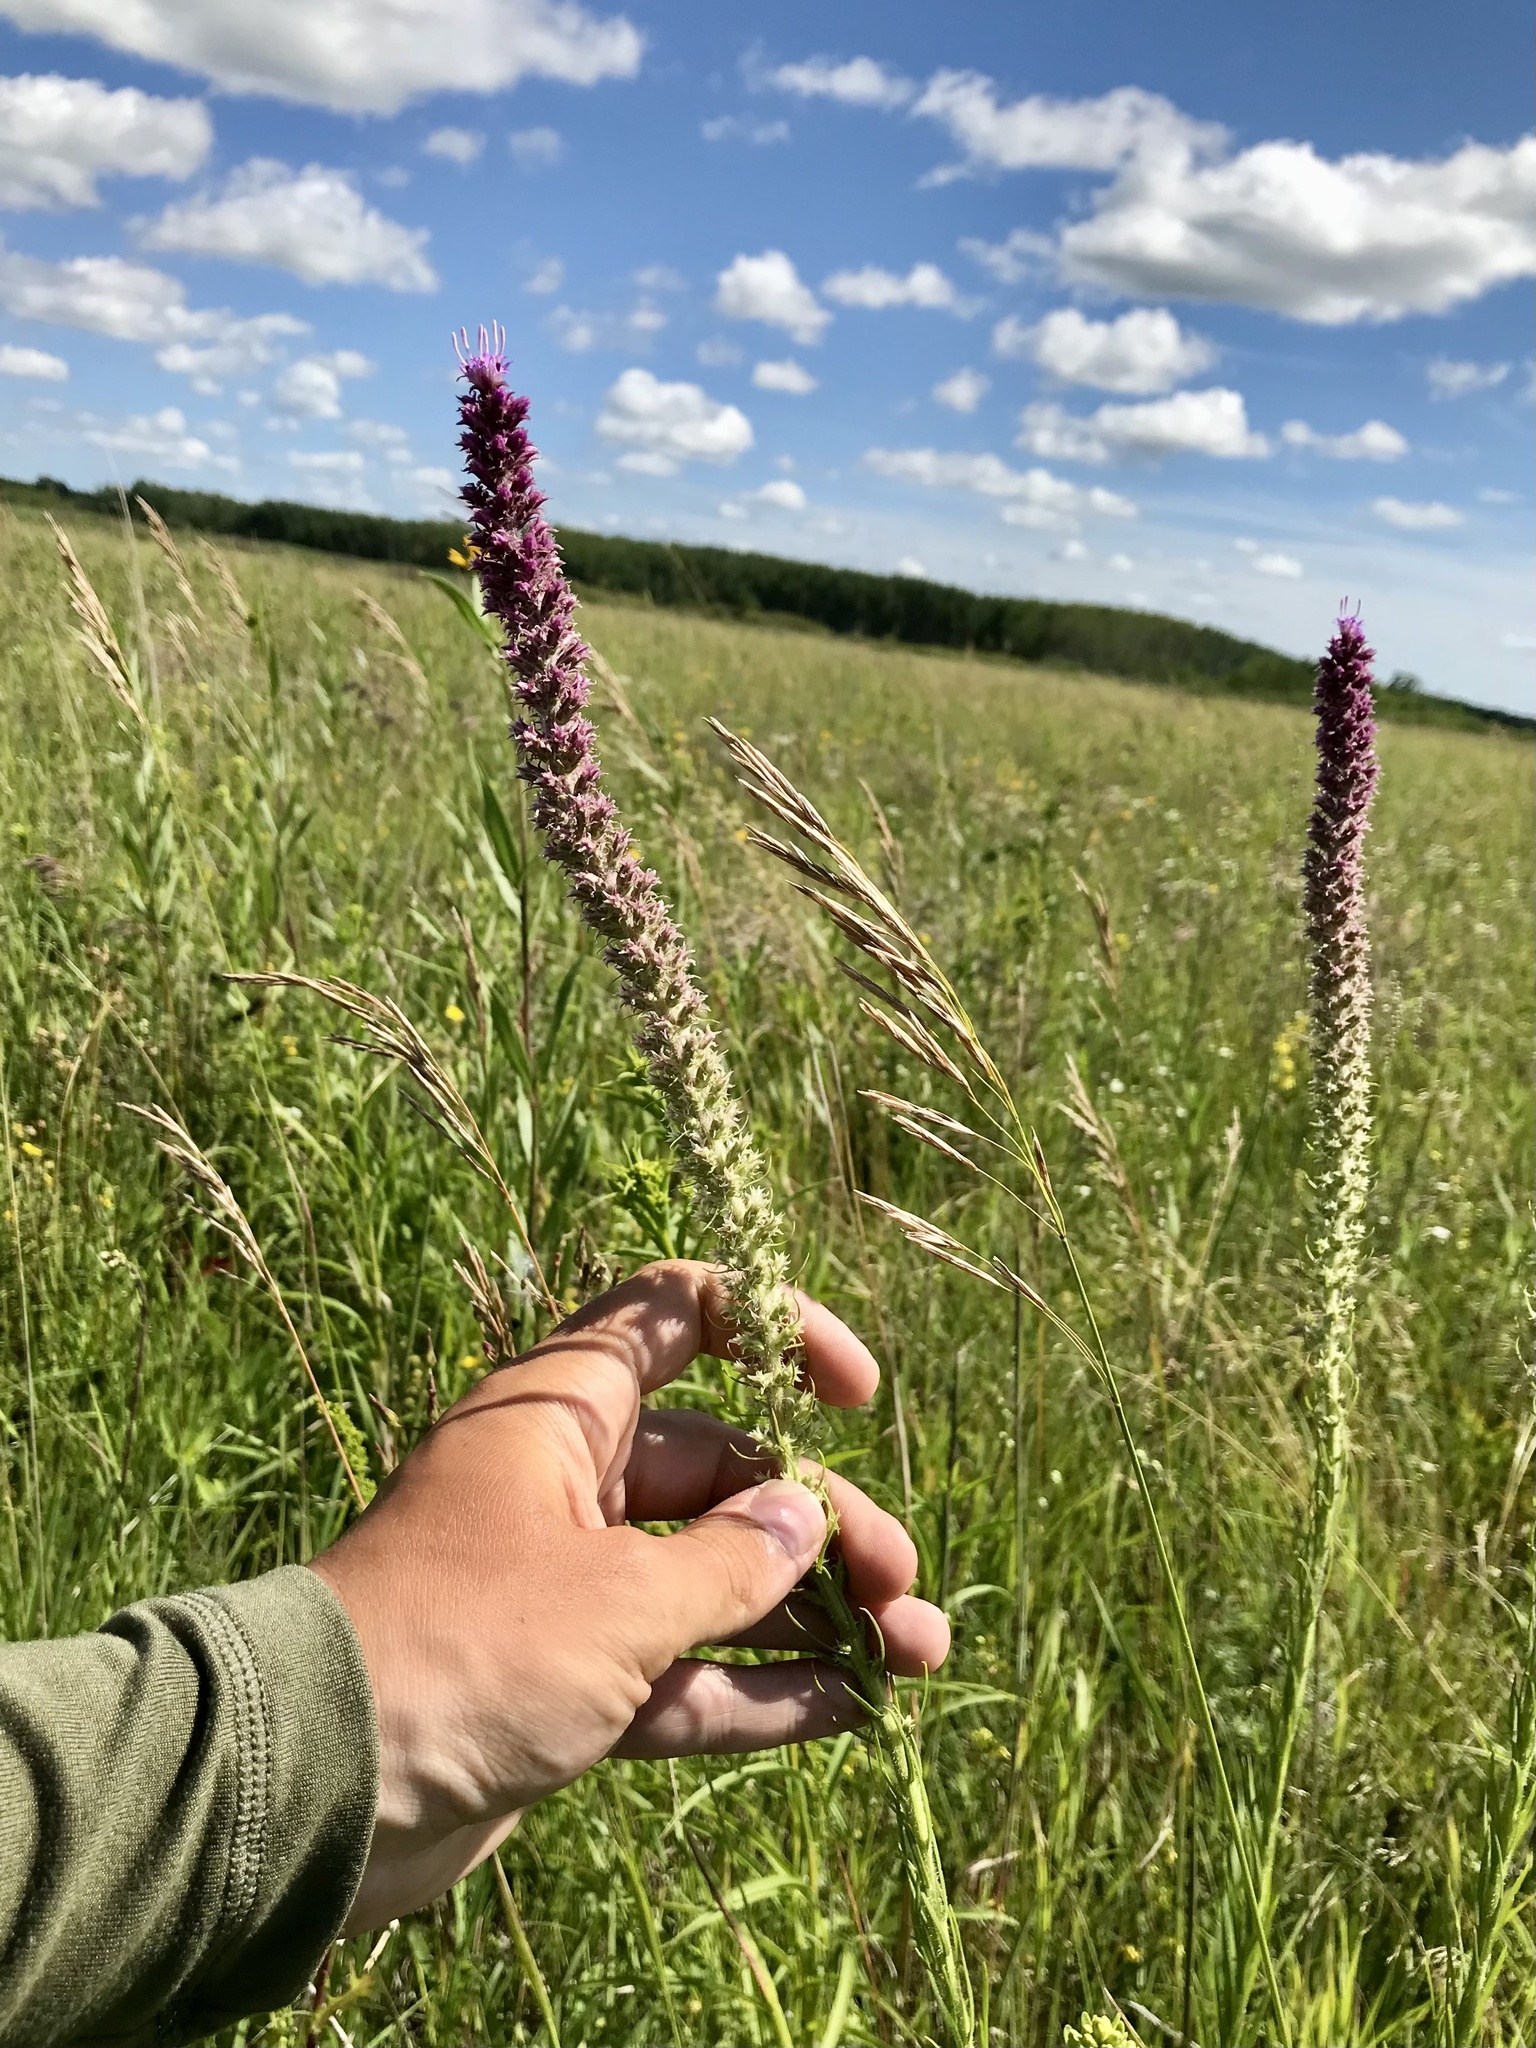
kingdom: Plantae
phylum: Tracheophyta
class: Magnoliopsida
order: Asterales
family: Asteraceae
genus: Liatris
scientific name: Liatris pycnostachya
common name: Cattail gayfeather
